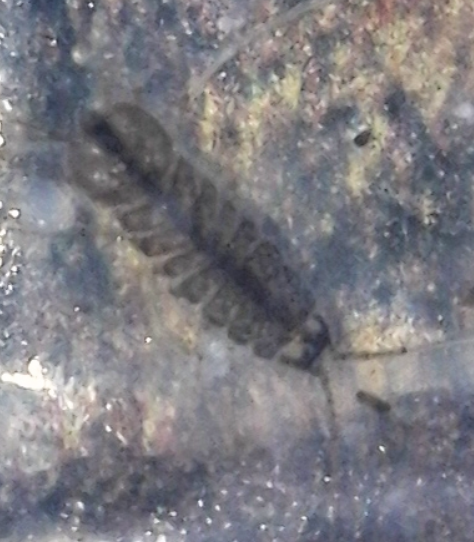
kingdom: Animalia
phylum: Arthropoda
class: Malacostraca
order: Isopoda
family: Asellidae
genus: Asellus
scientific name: Asellus aquaticus
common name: Water hog lice/slaters
